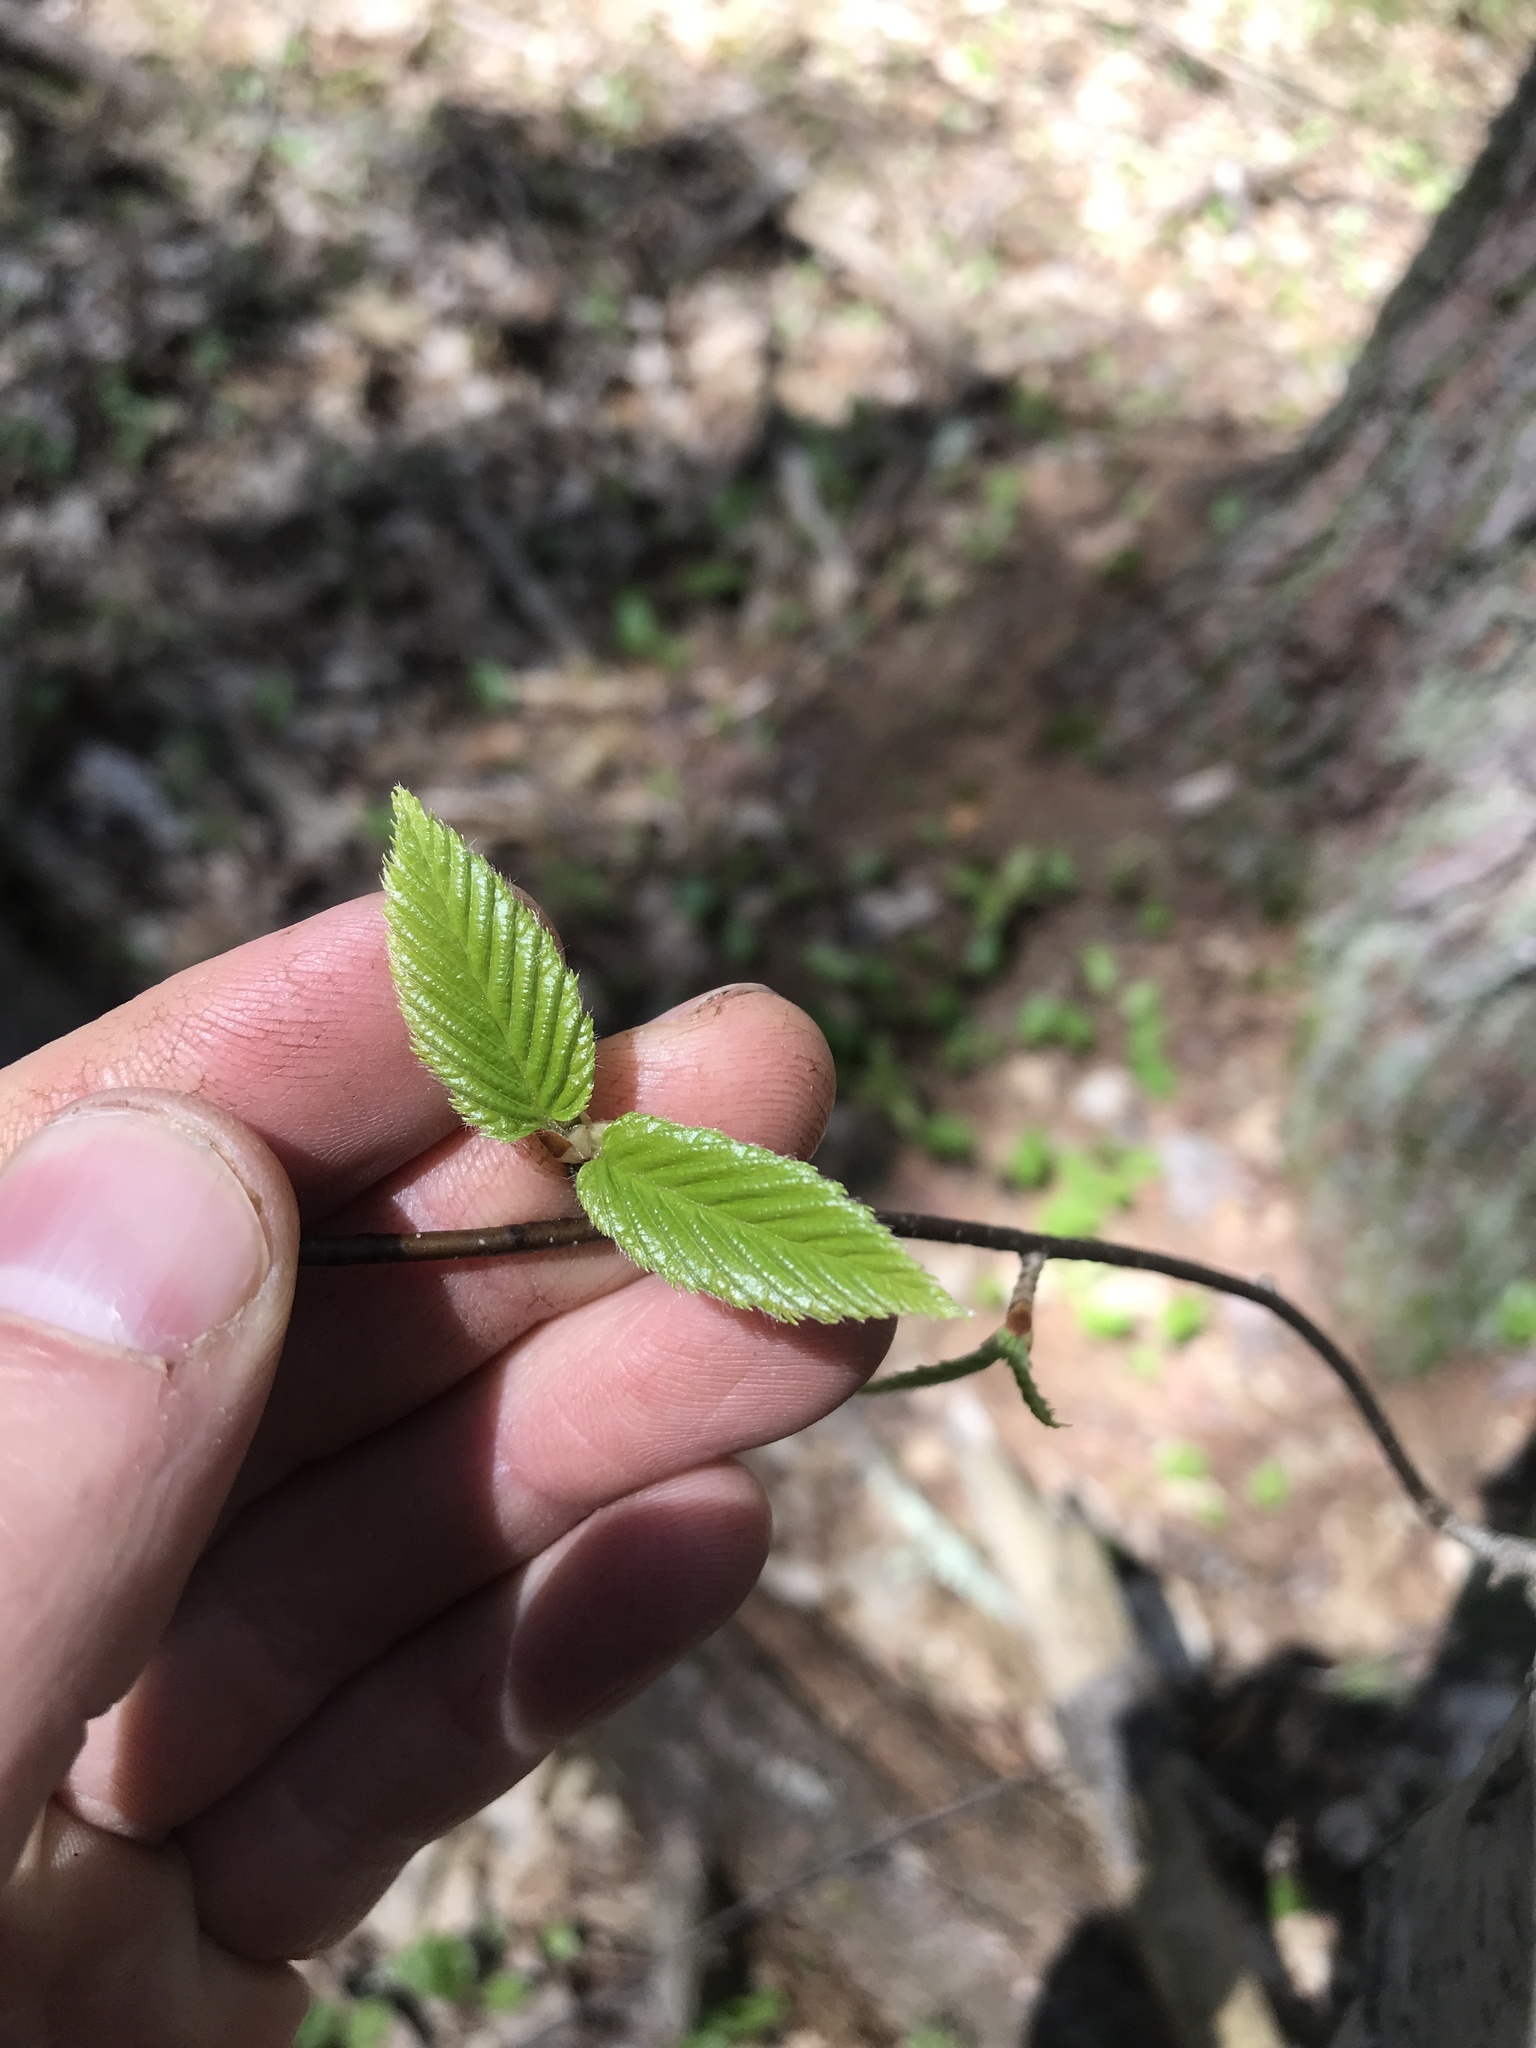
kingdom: Plantae
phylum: Tracheophyta
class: Magnoliopsida
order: Fagales
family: Betulaceae
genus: Betula
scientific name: Betula lenta
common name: Black birch
